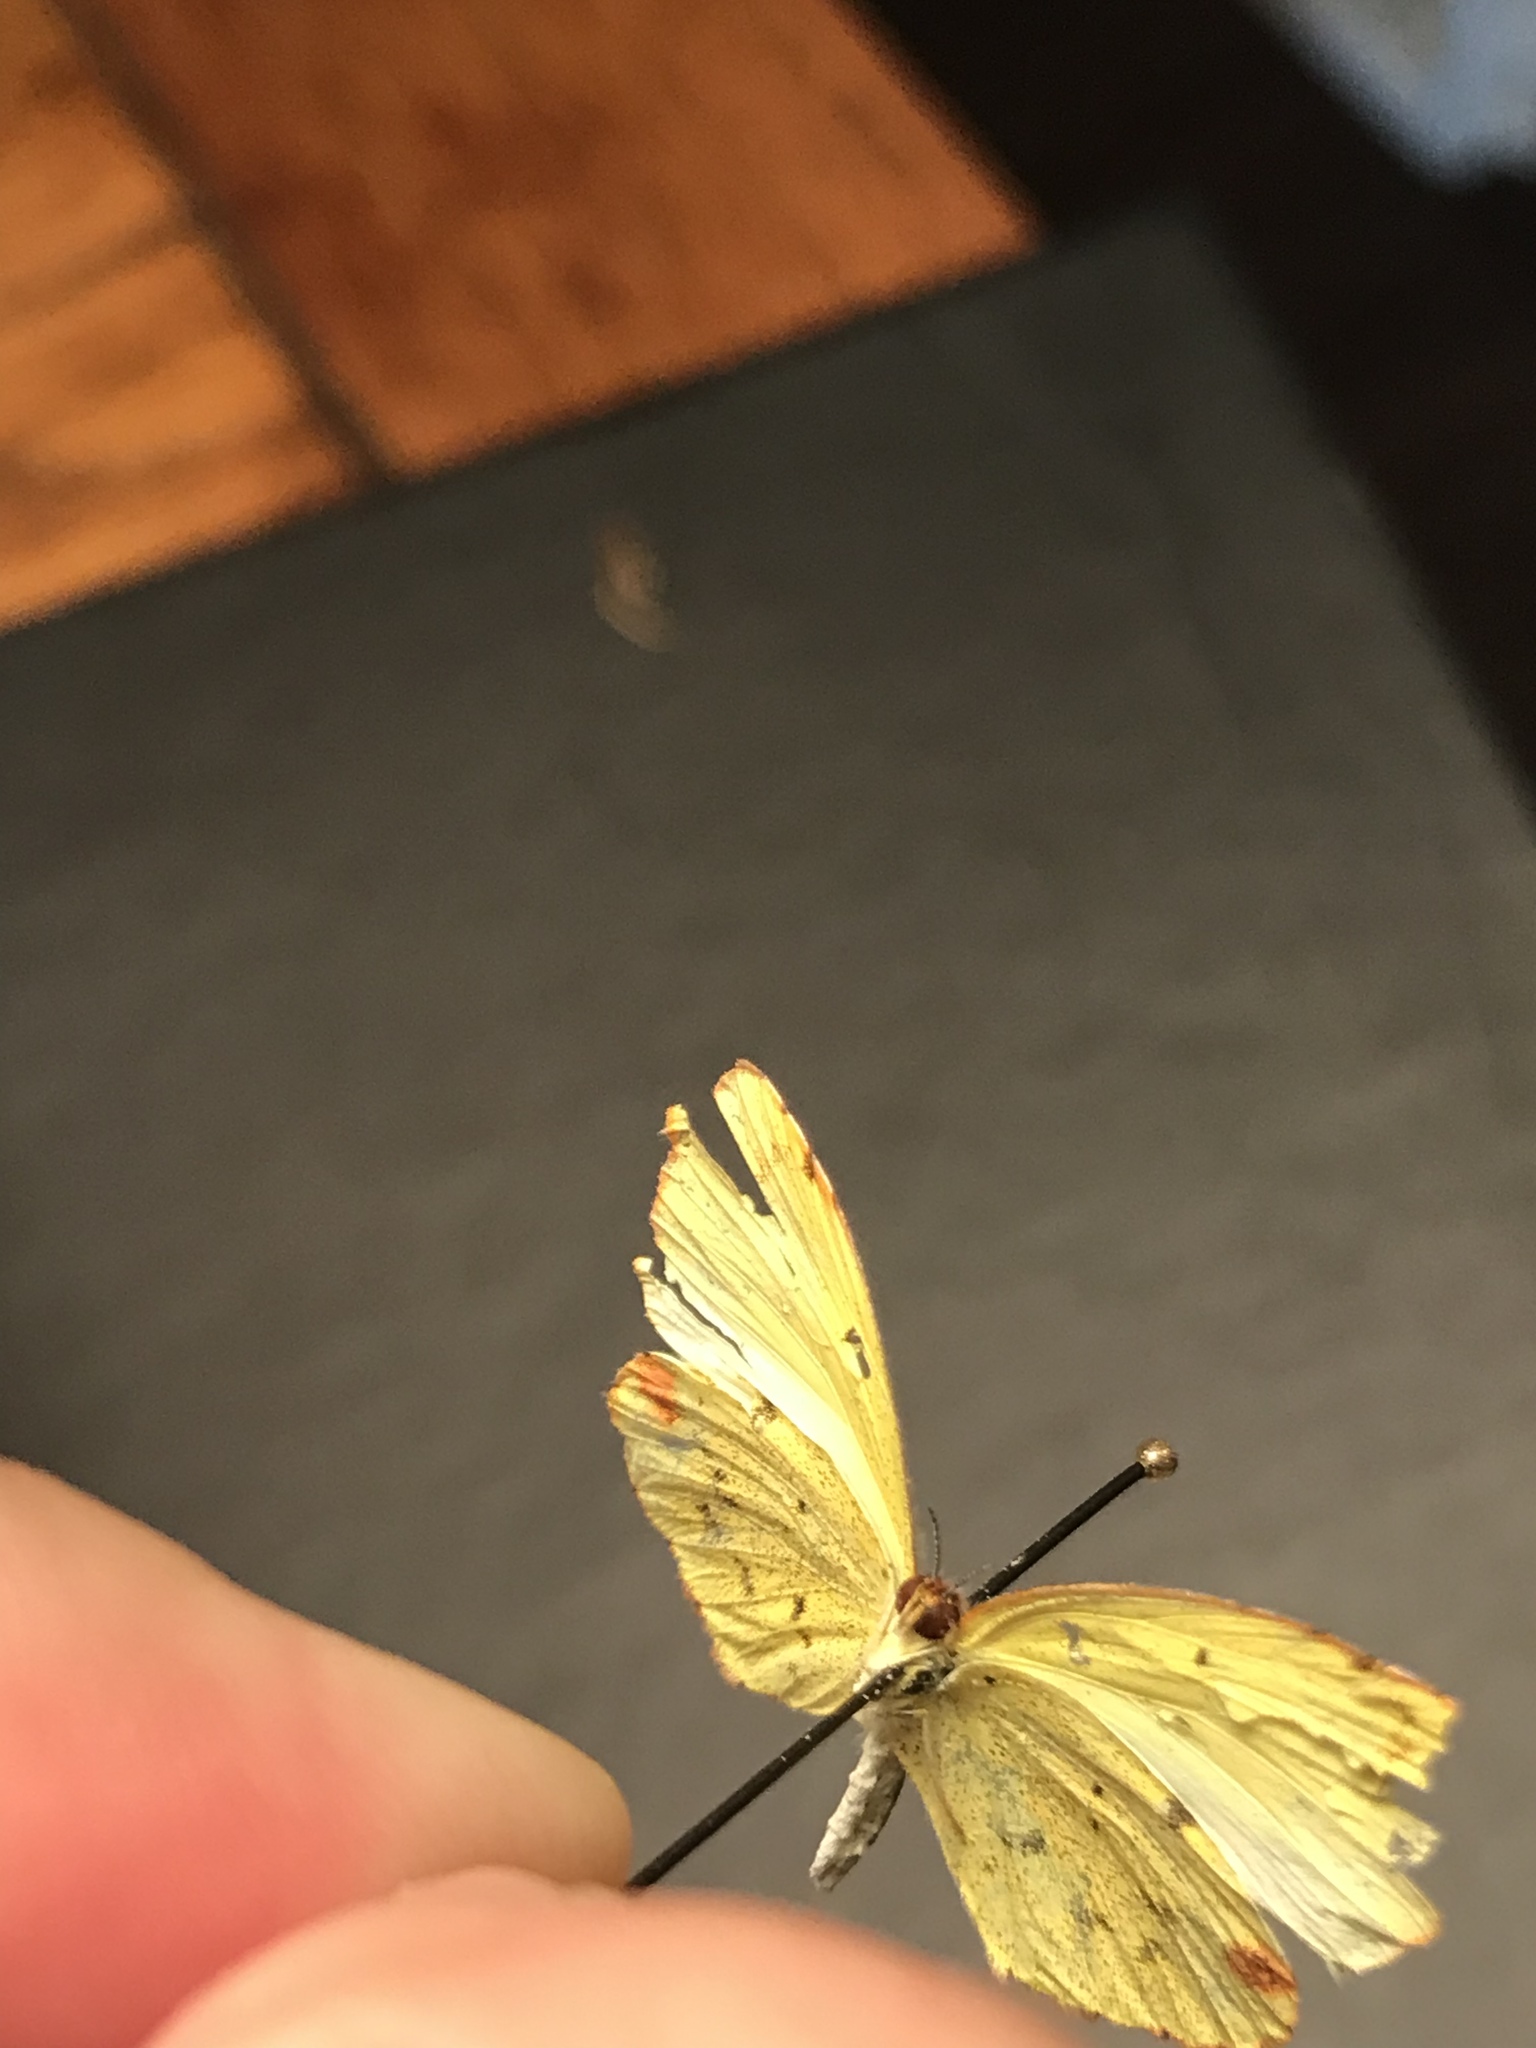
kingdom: Animalia
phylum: Arthropoda
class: Insecta
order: Lepidoptera
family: Pieridae
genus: Pyrisitia
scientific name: Pyrisitia lisa
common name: Little yellow
